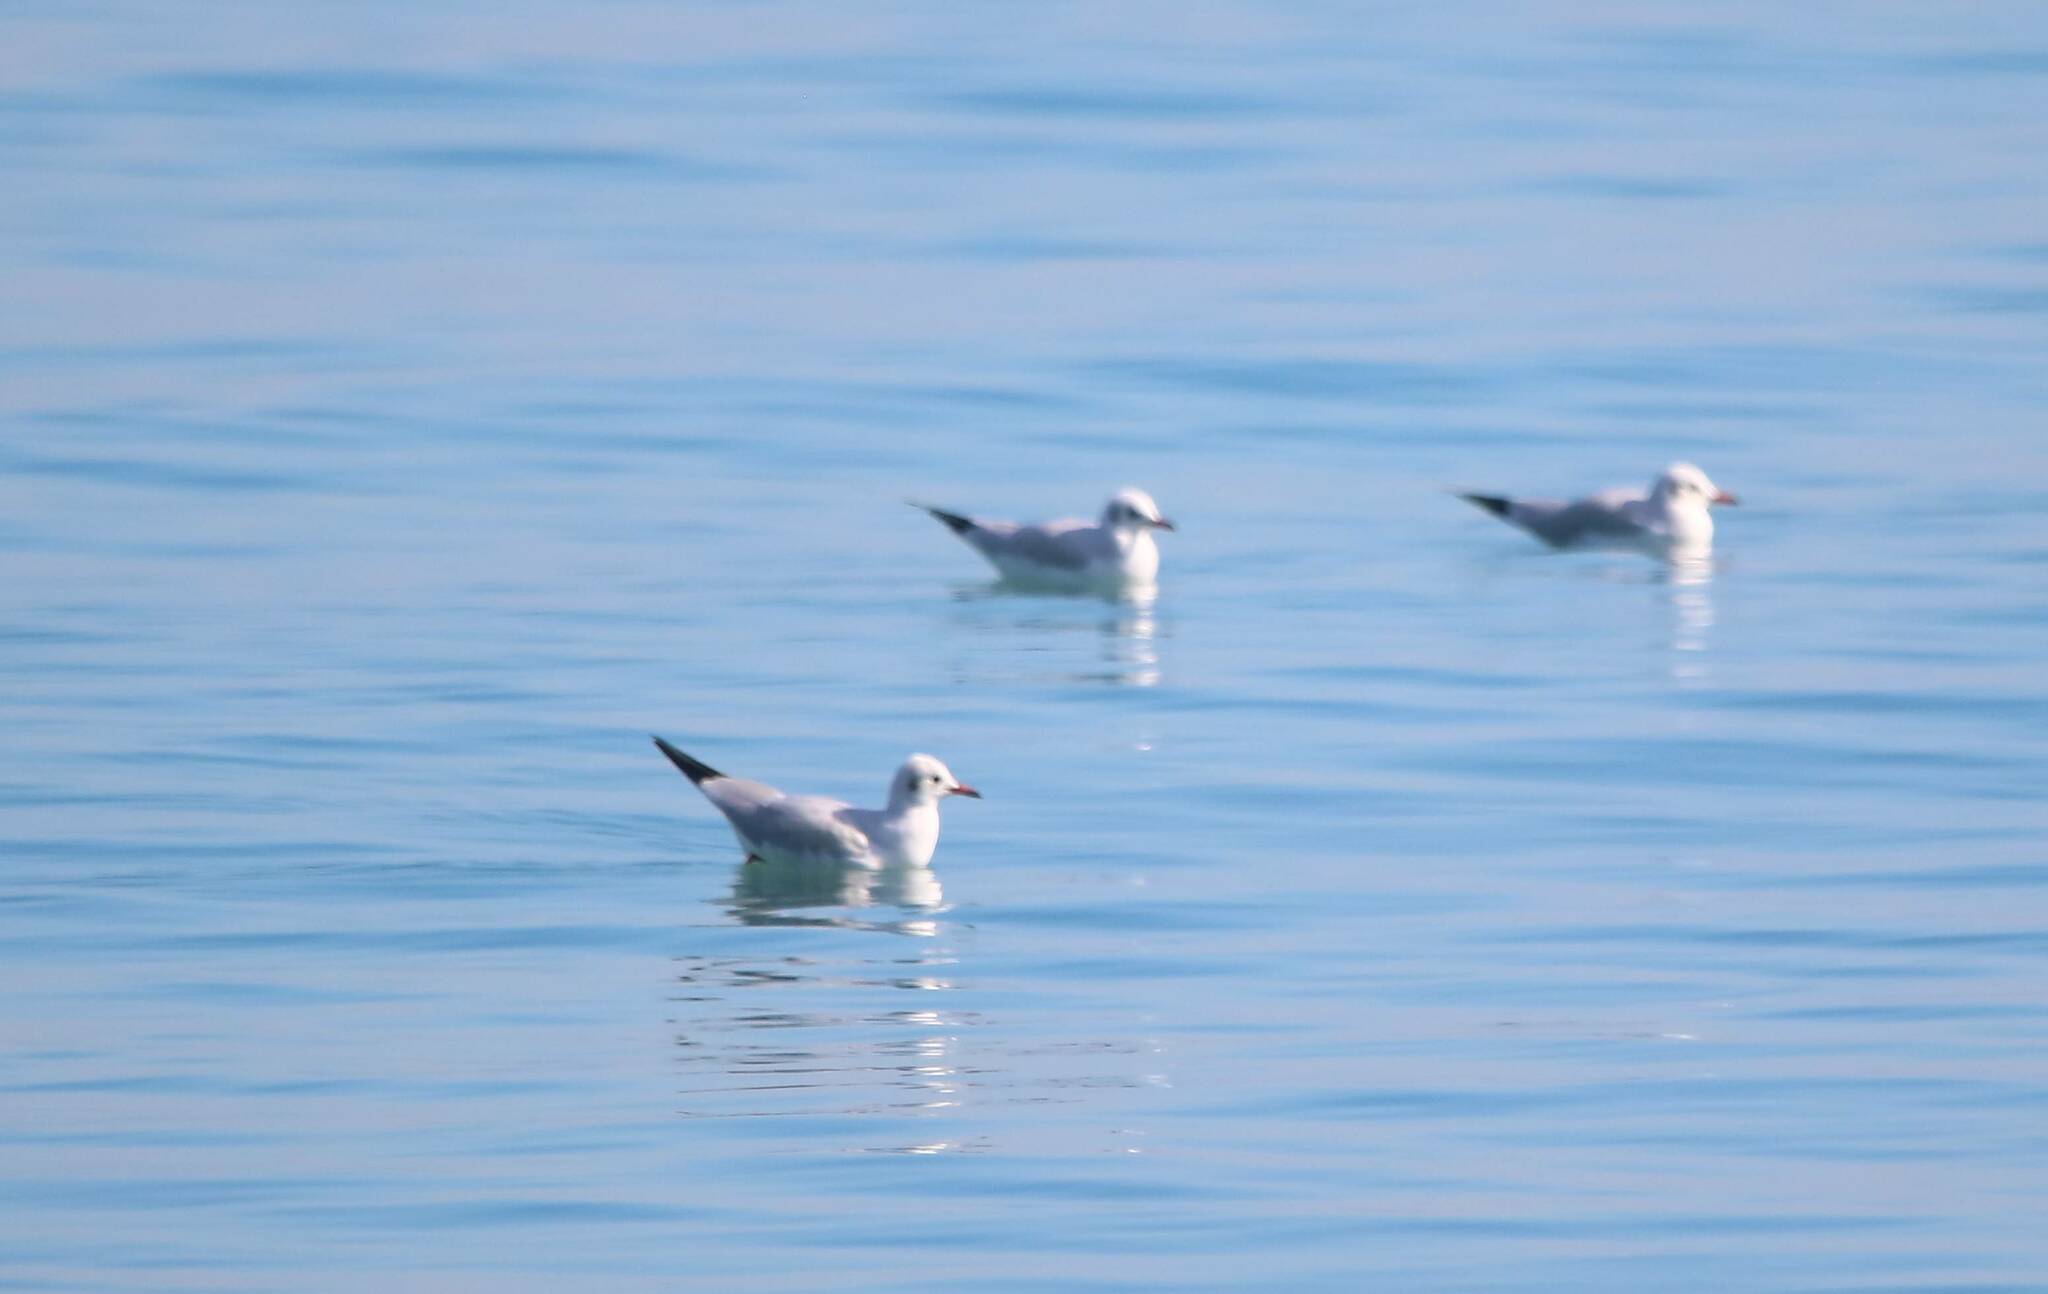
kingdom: Animalia
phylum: Chordata
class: Aves
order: Charadriiformes
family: Laridae
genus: Chroicocephalus
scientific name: Chroicocephalus ridibundus
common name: Black-headed gull
